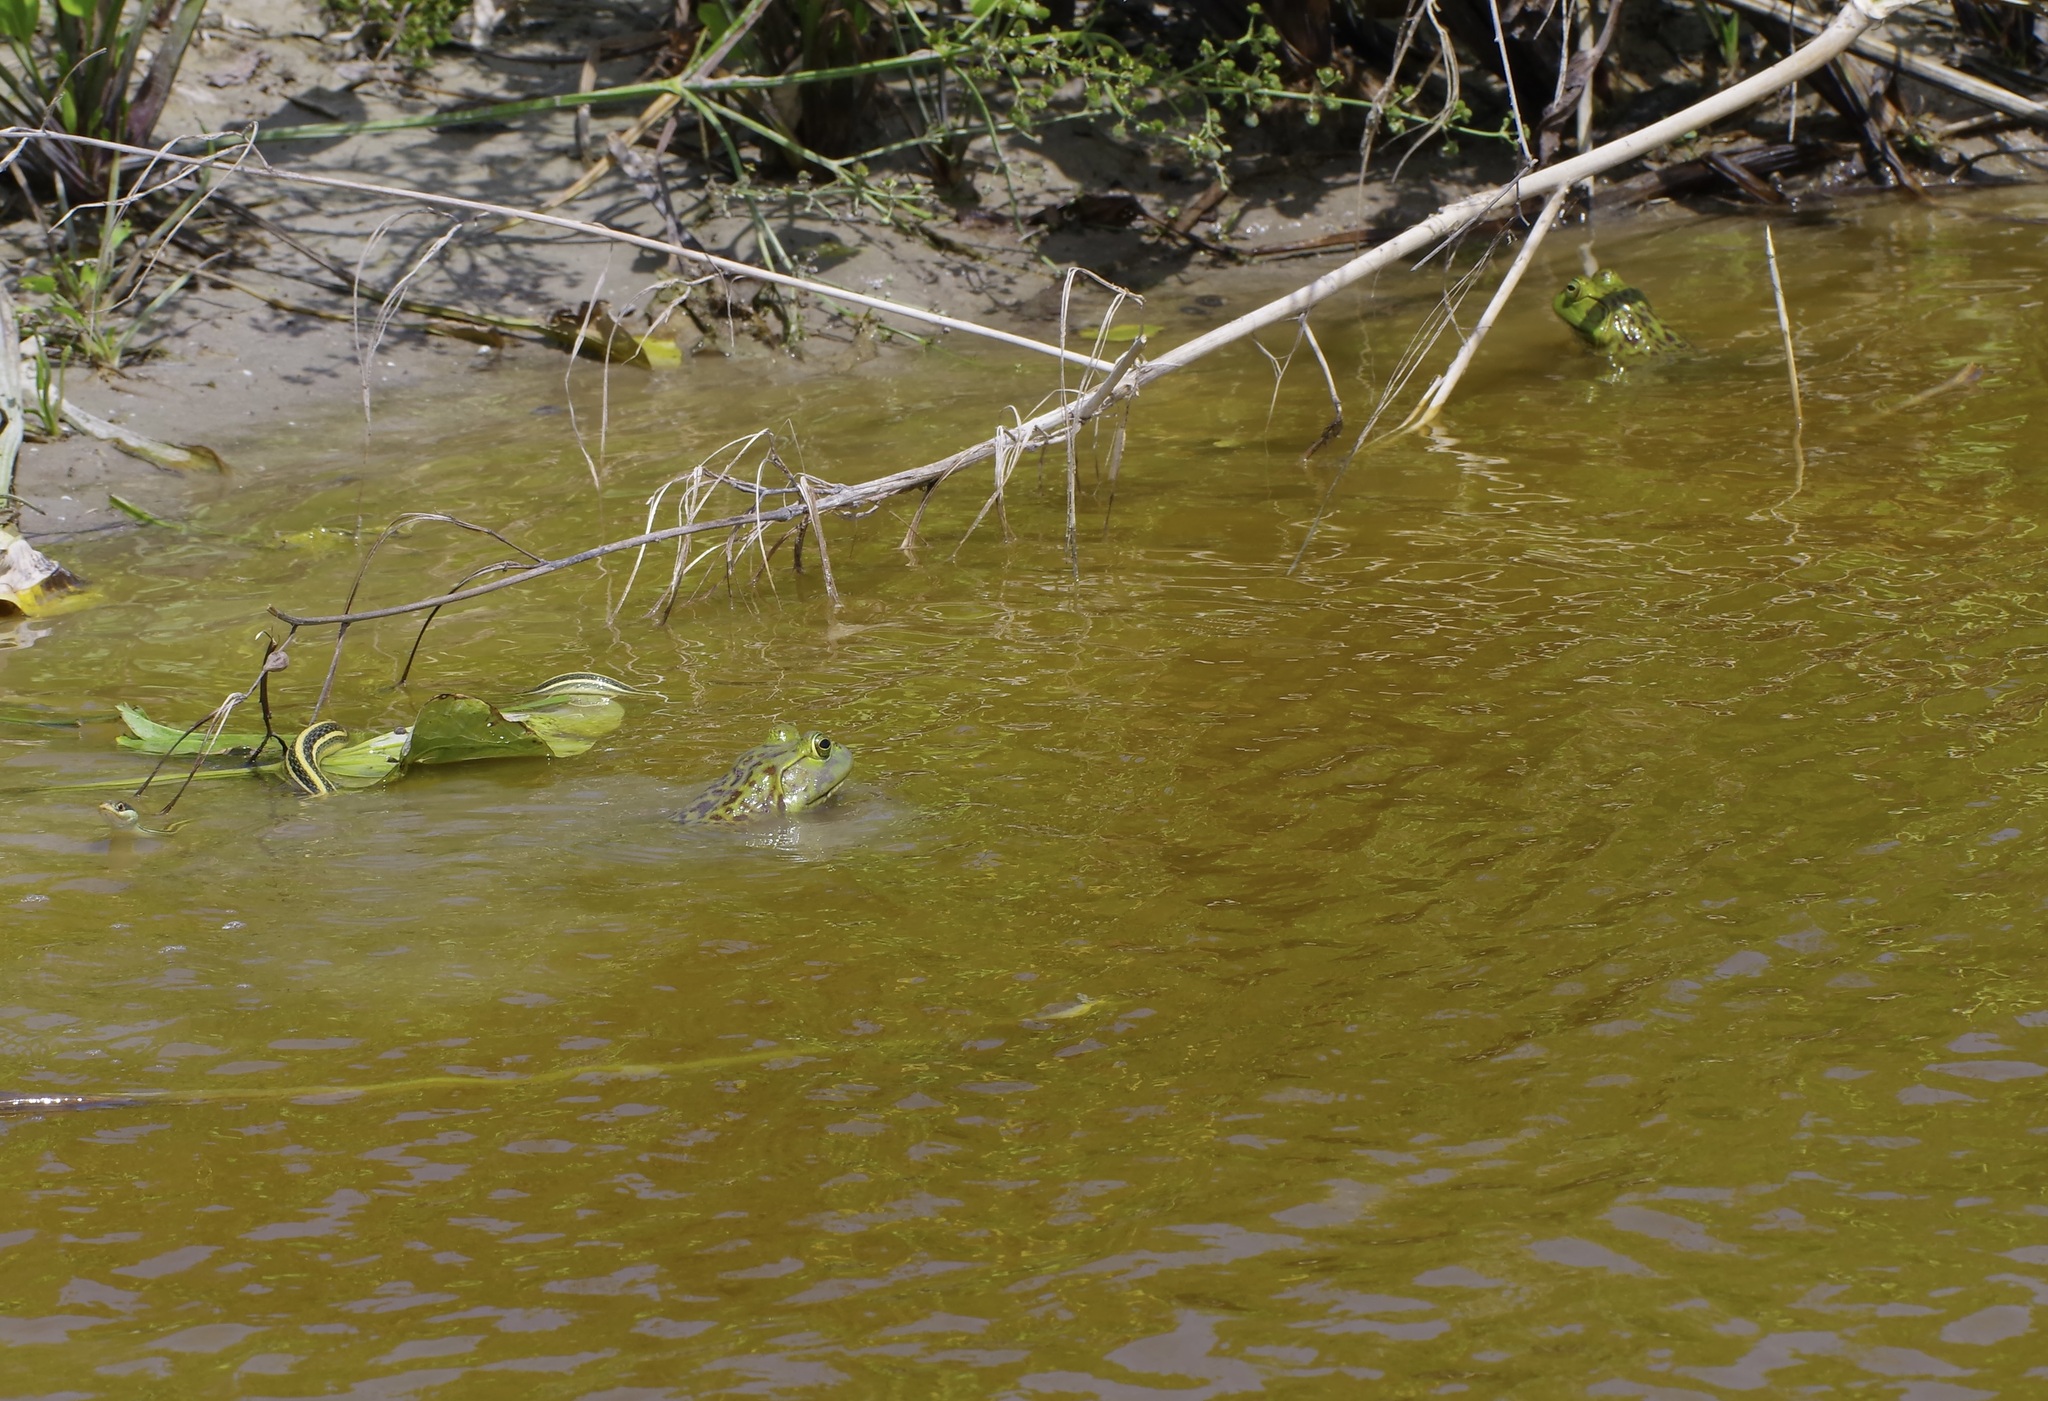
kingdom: Animalia
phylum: Chordata
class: Amphibia
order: Anura
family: Ranidae
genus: Lithobates
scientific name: Lithobates catesbeianus
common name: American bullfrog
